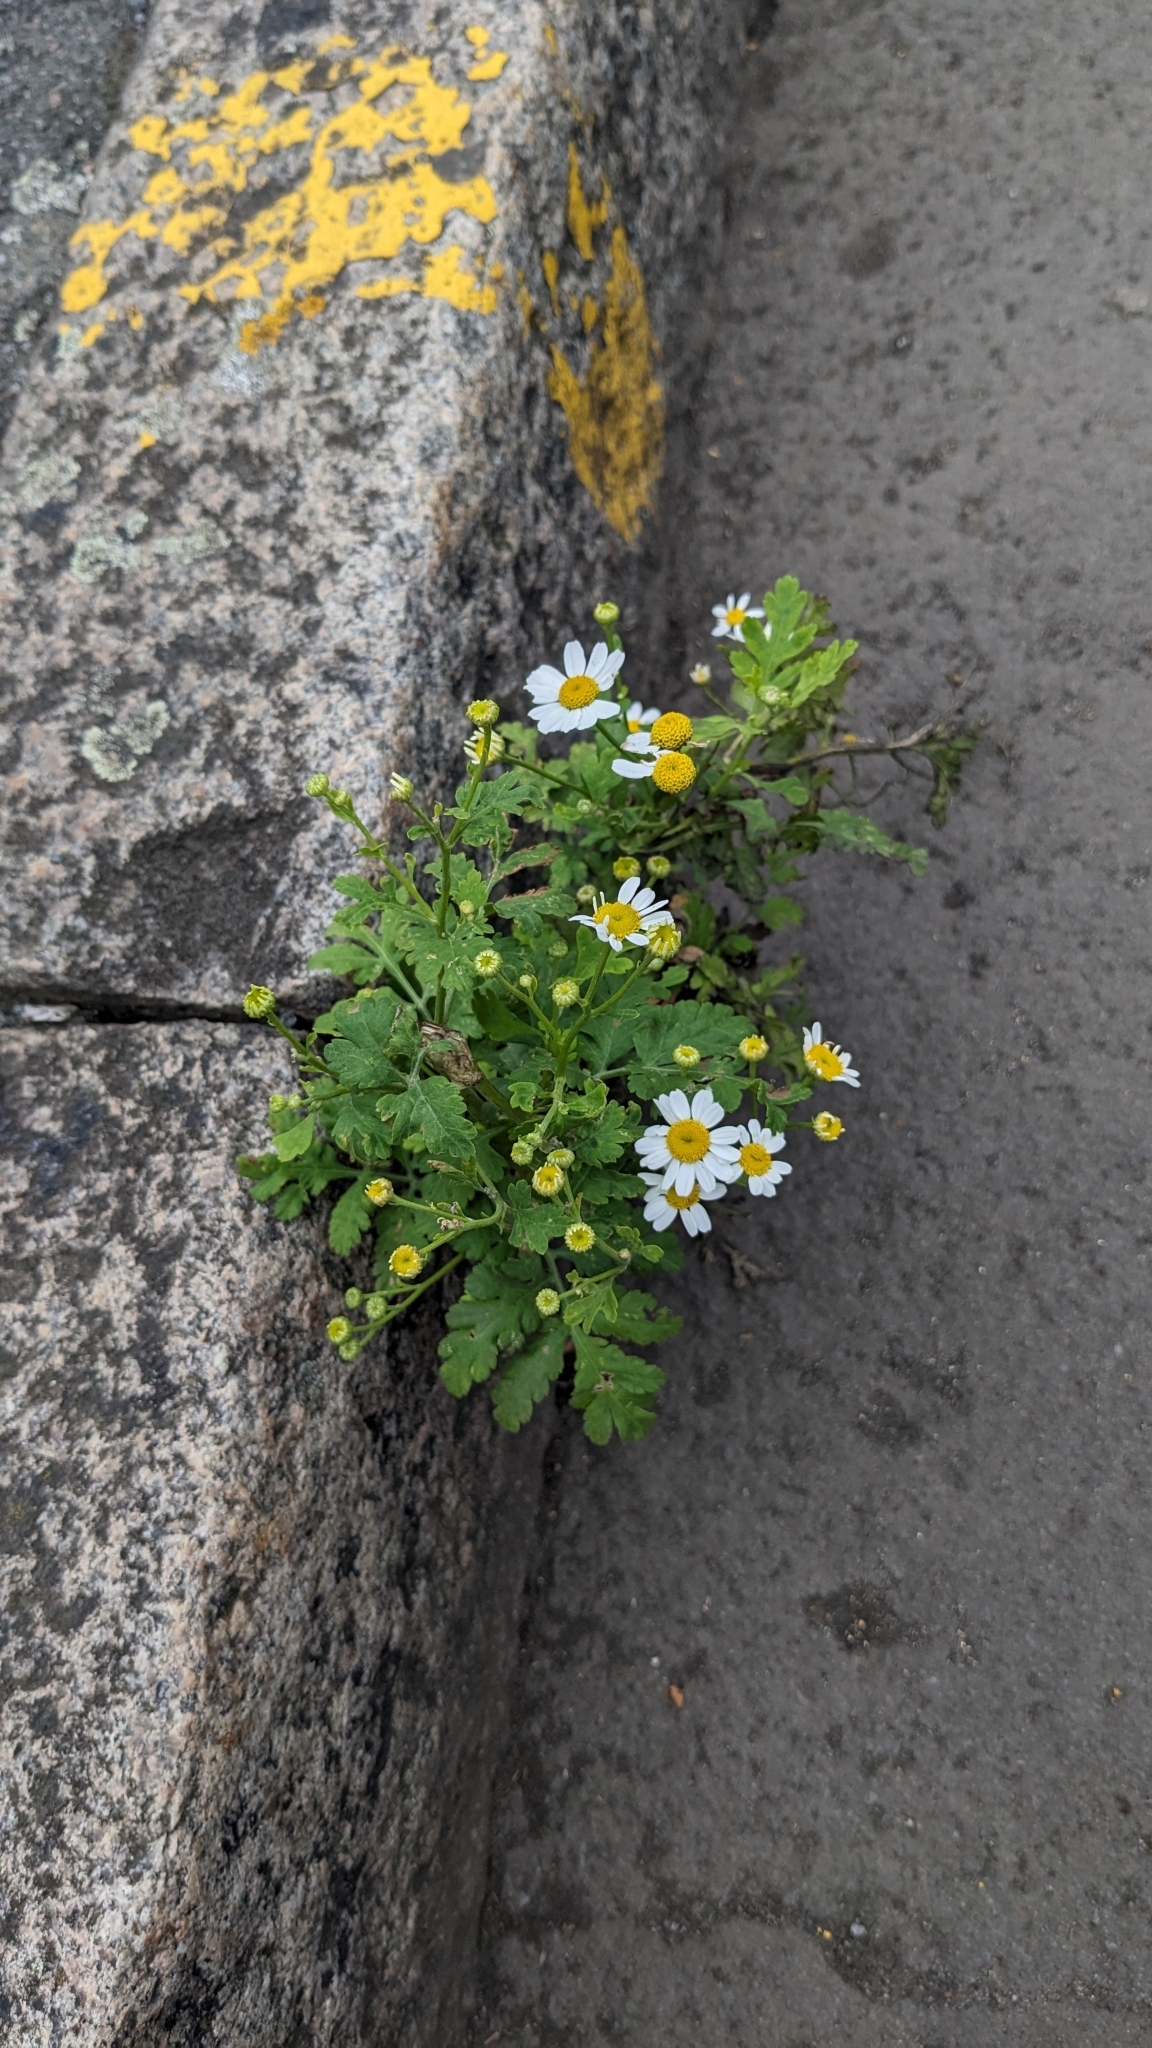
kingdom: Plantae
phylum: Tracheophyta
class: Magnoliopsida
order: Asterales
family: Asteraceae
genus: Tanacetum
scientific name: Tanacetum parthenium
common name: Feverfew
